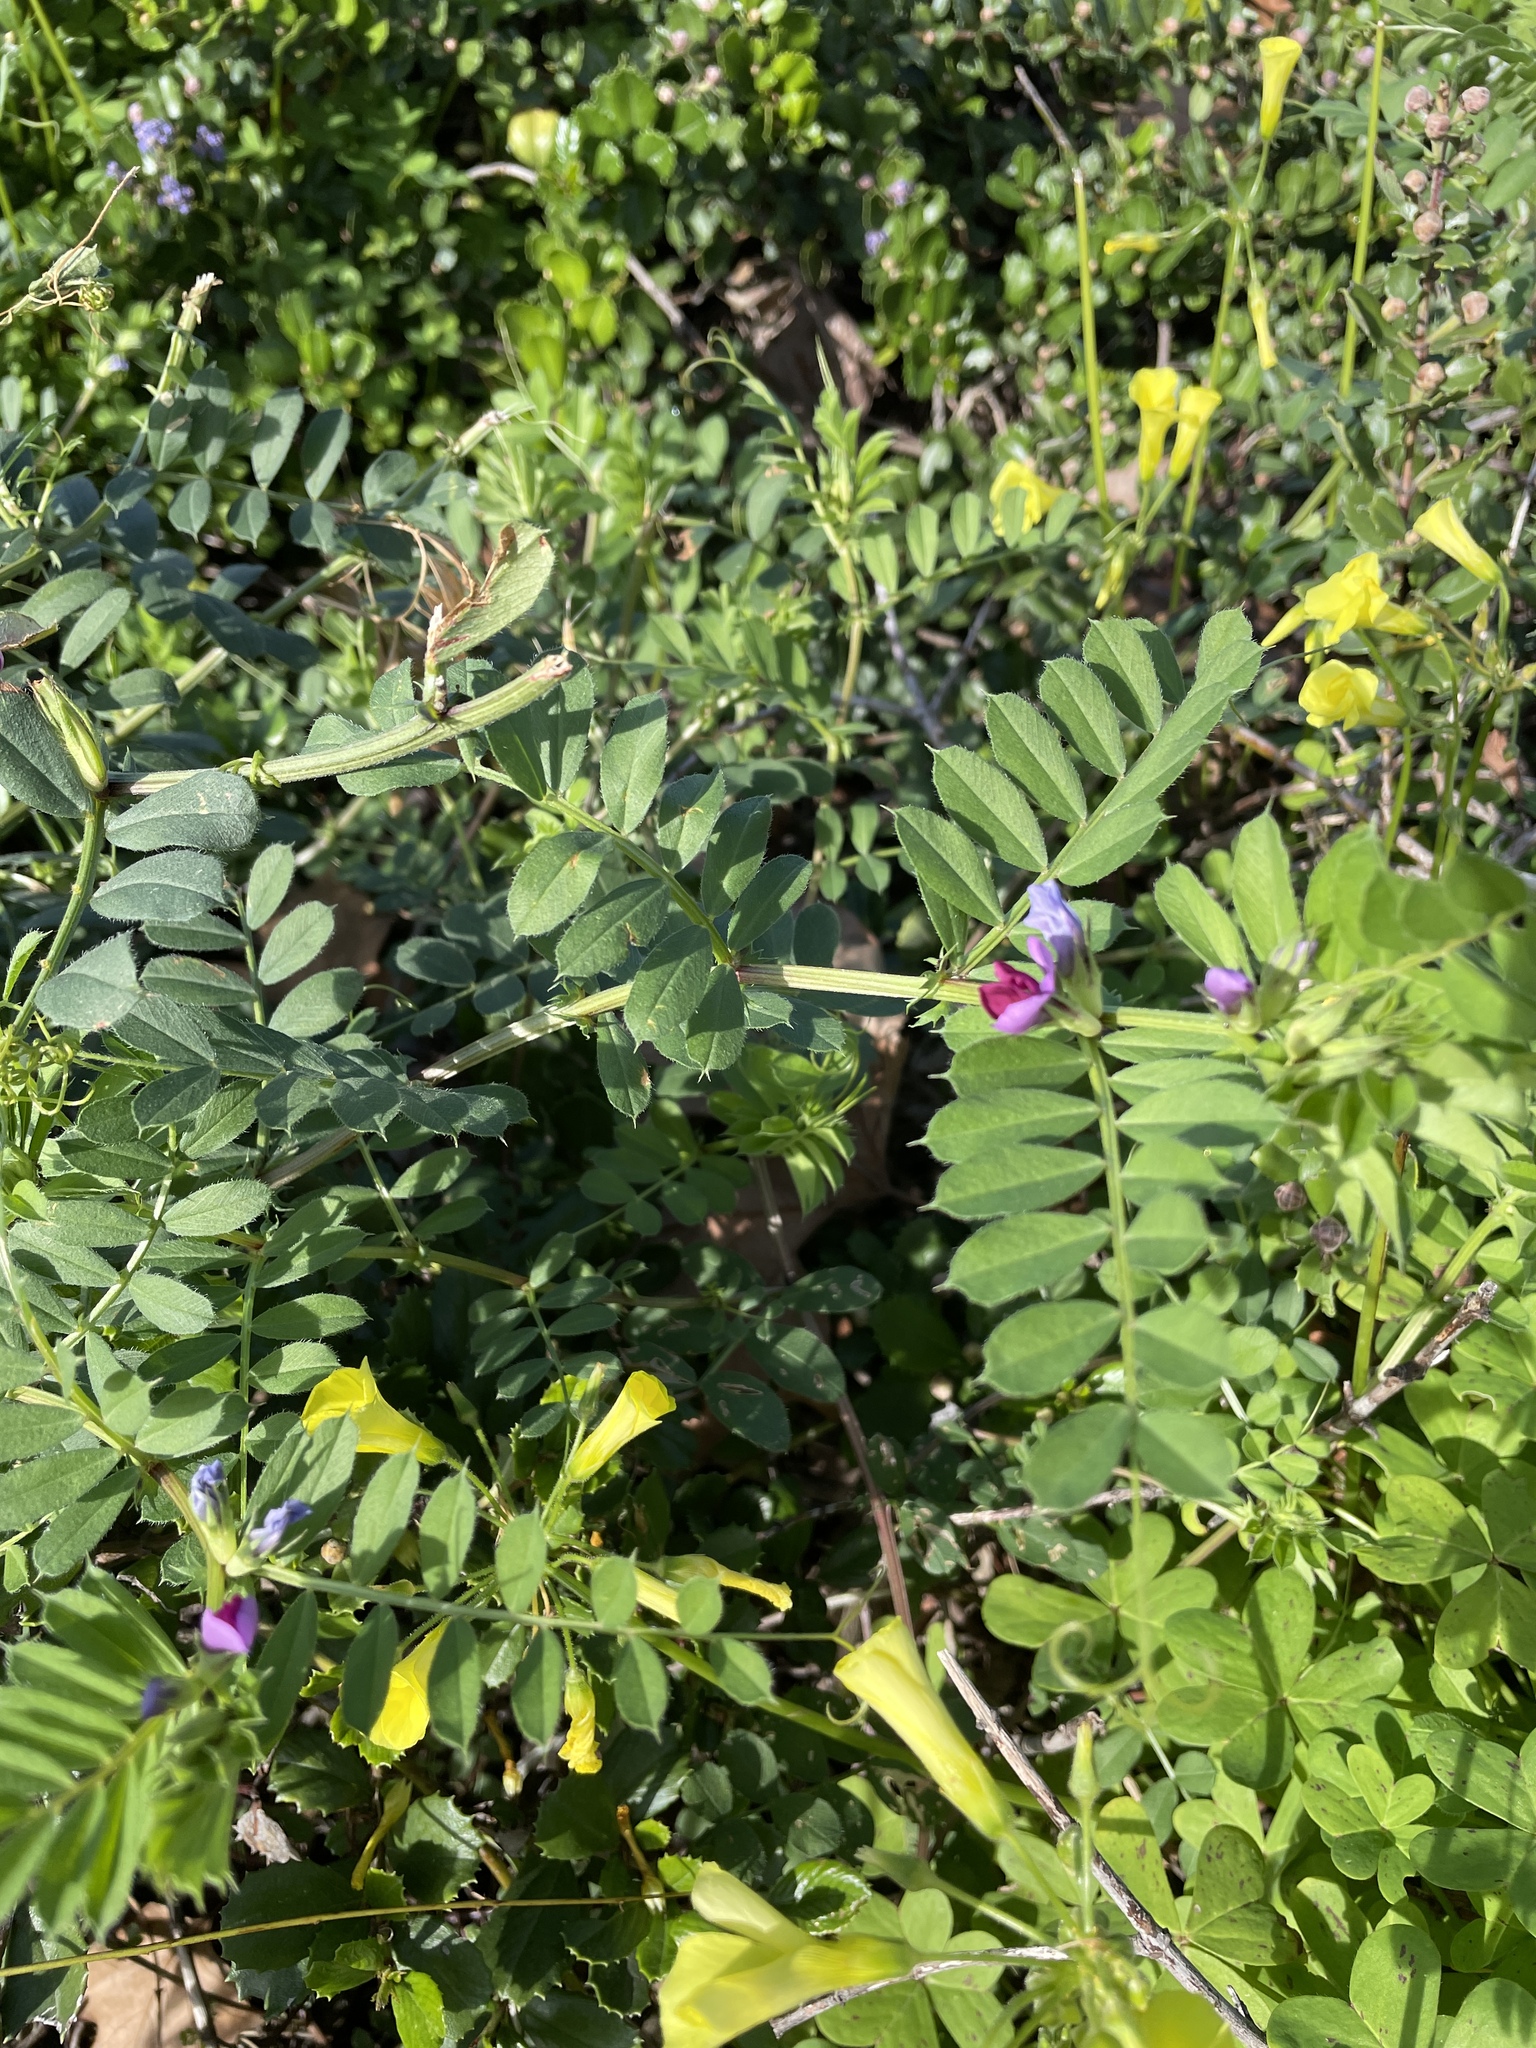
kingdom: Plantae
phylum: Tracheophyta
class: Magnoliopsida
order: Fabales
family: Fabaceae
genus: Vicia
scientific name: Vicia sativa
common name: Garden vetch
